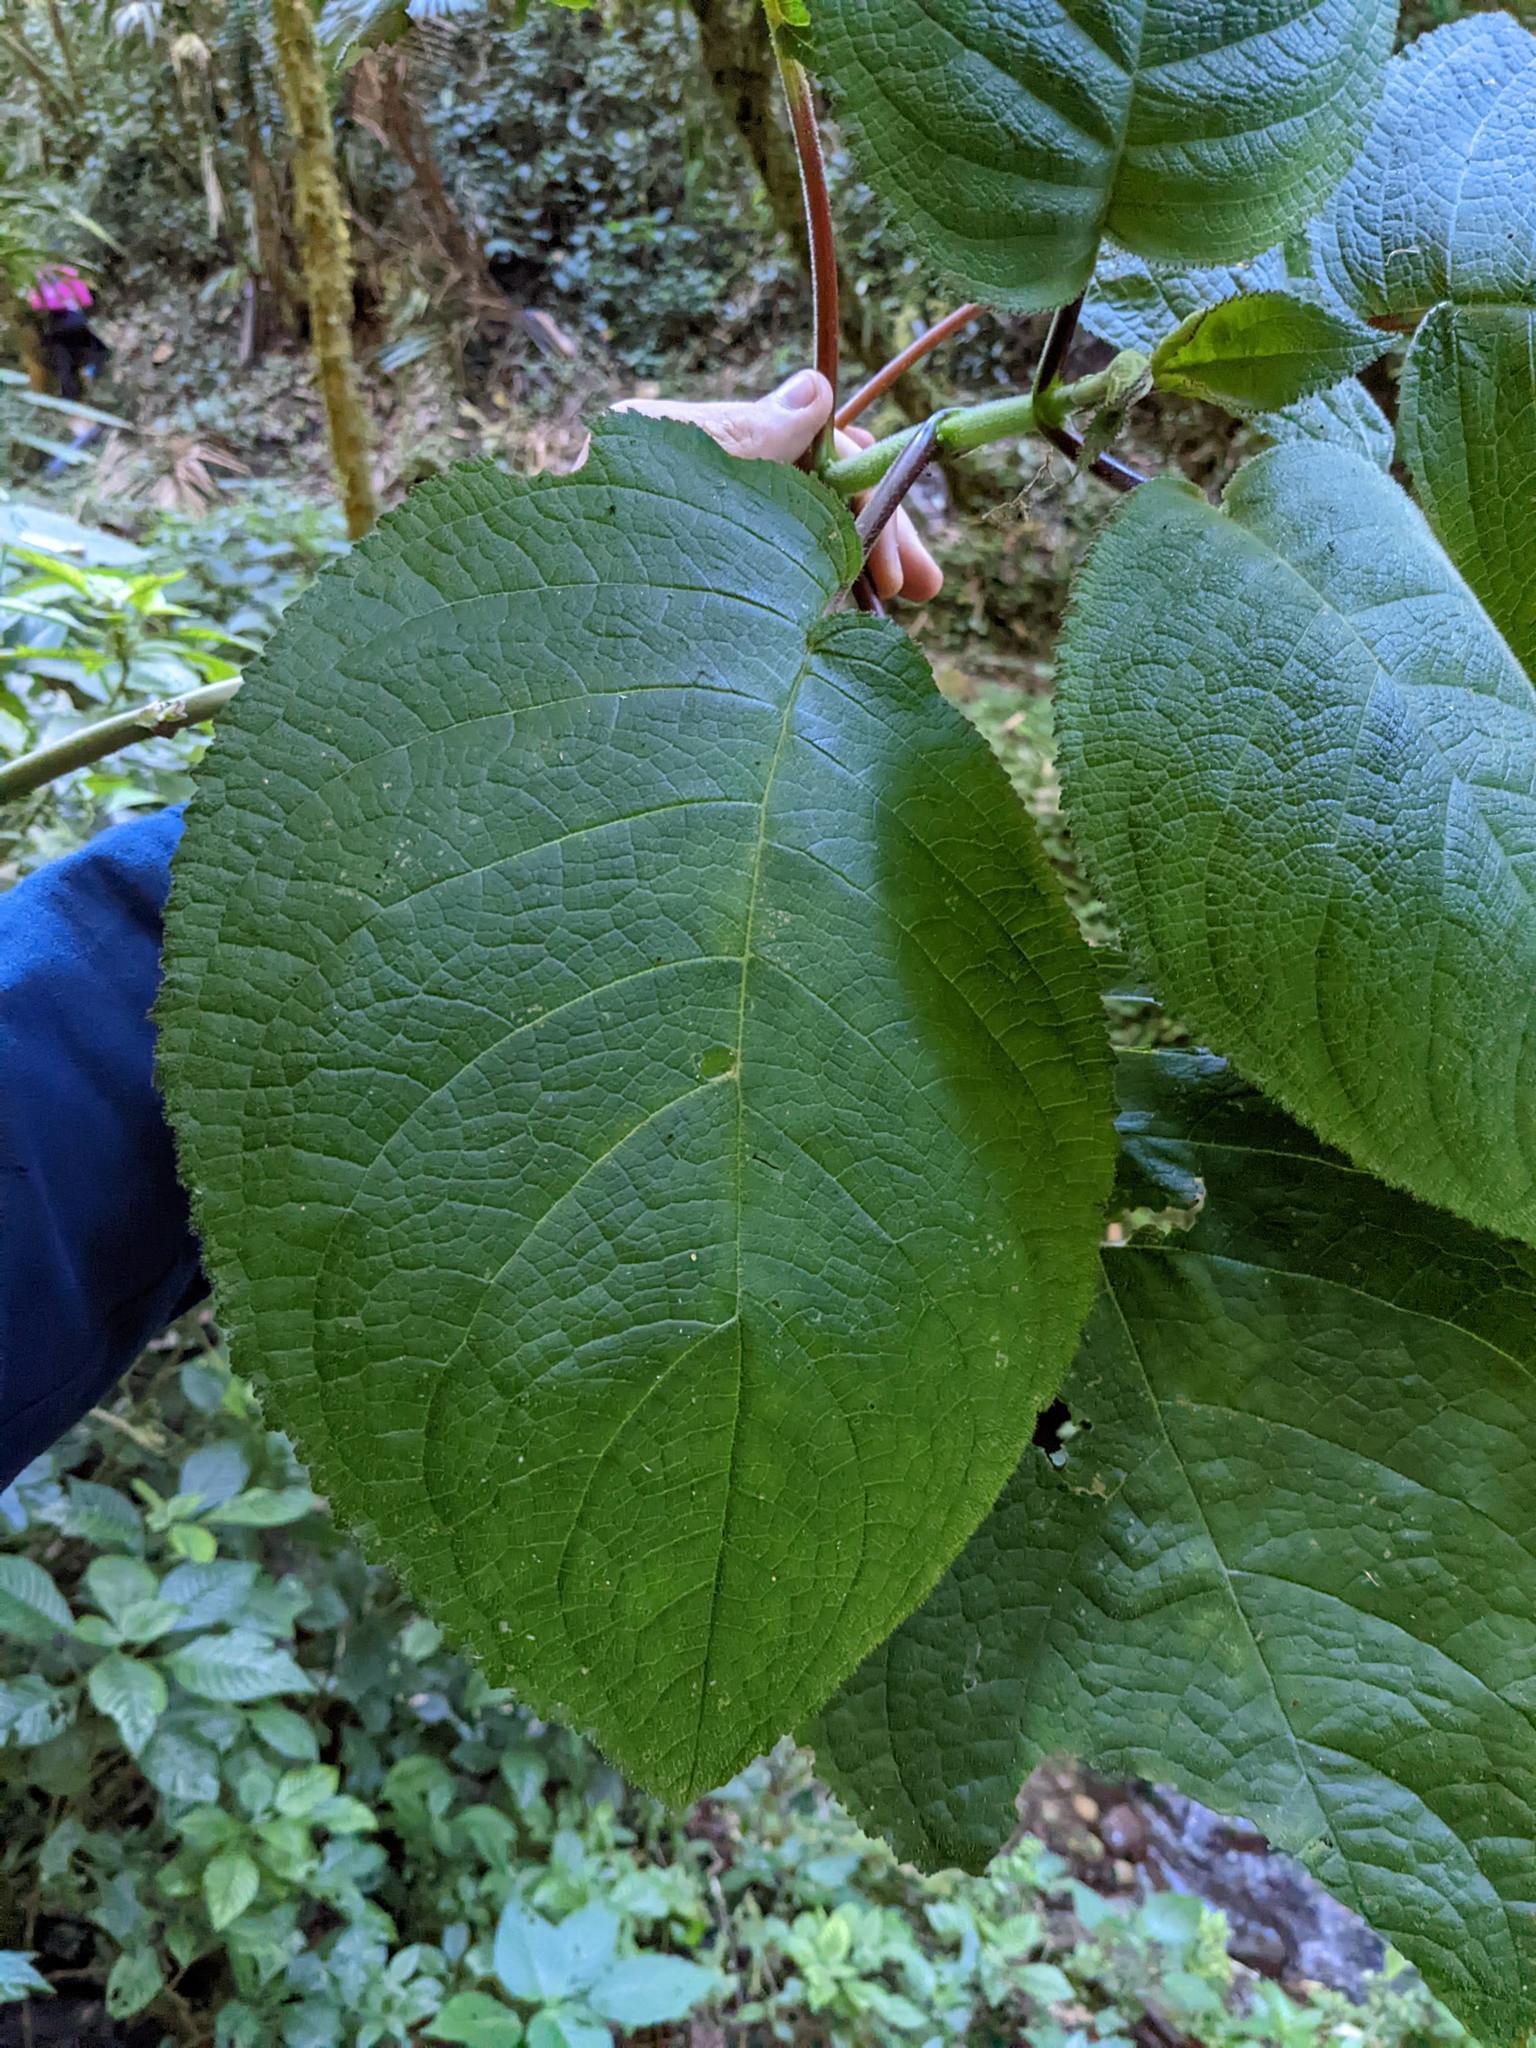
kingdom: Plantae
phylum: Tracheophyta
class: Magnoliopsida
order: Lamiales
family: Gesneriaceae
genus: Solenophora
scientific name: Solenophora calycosa
